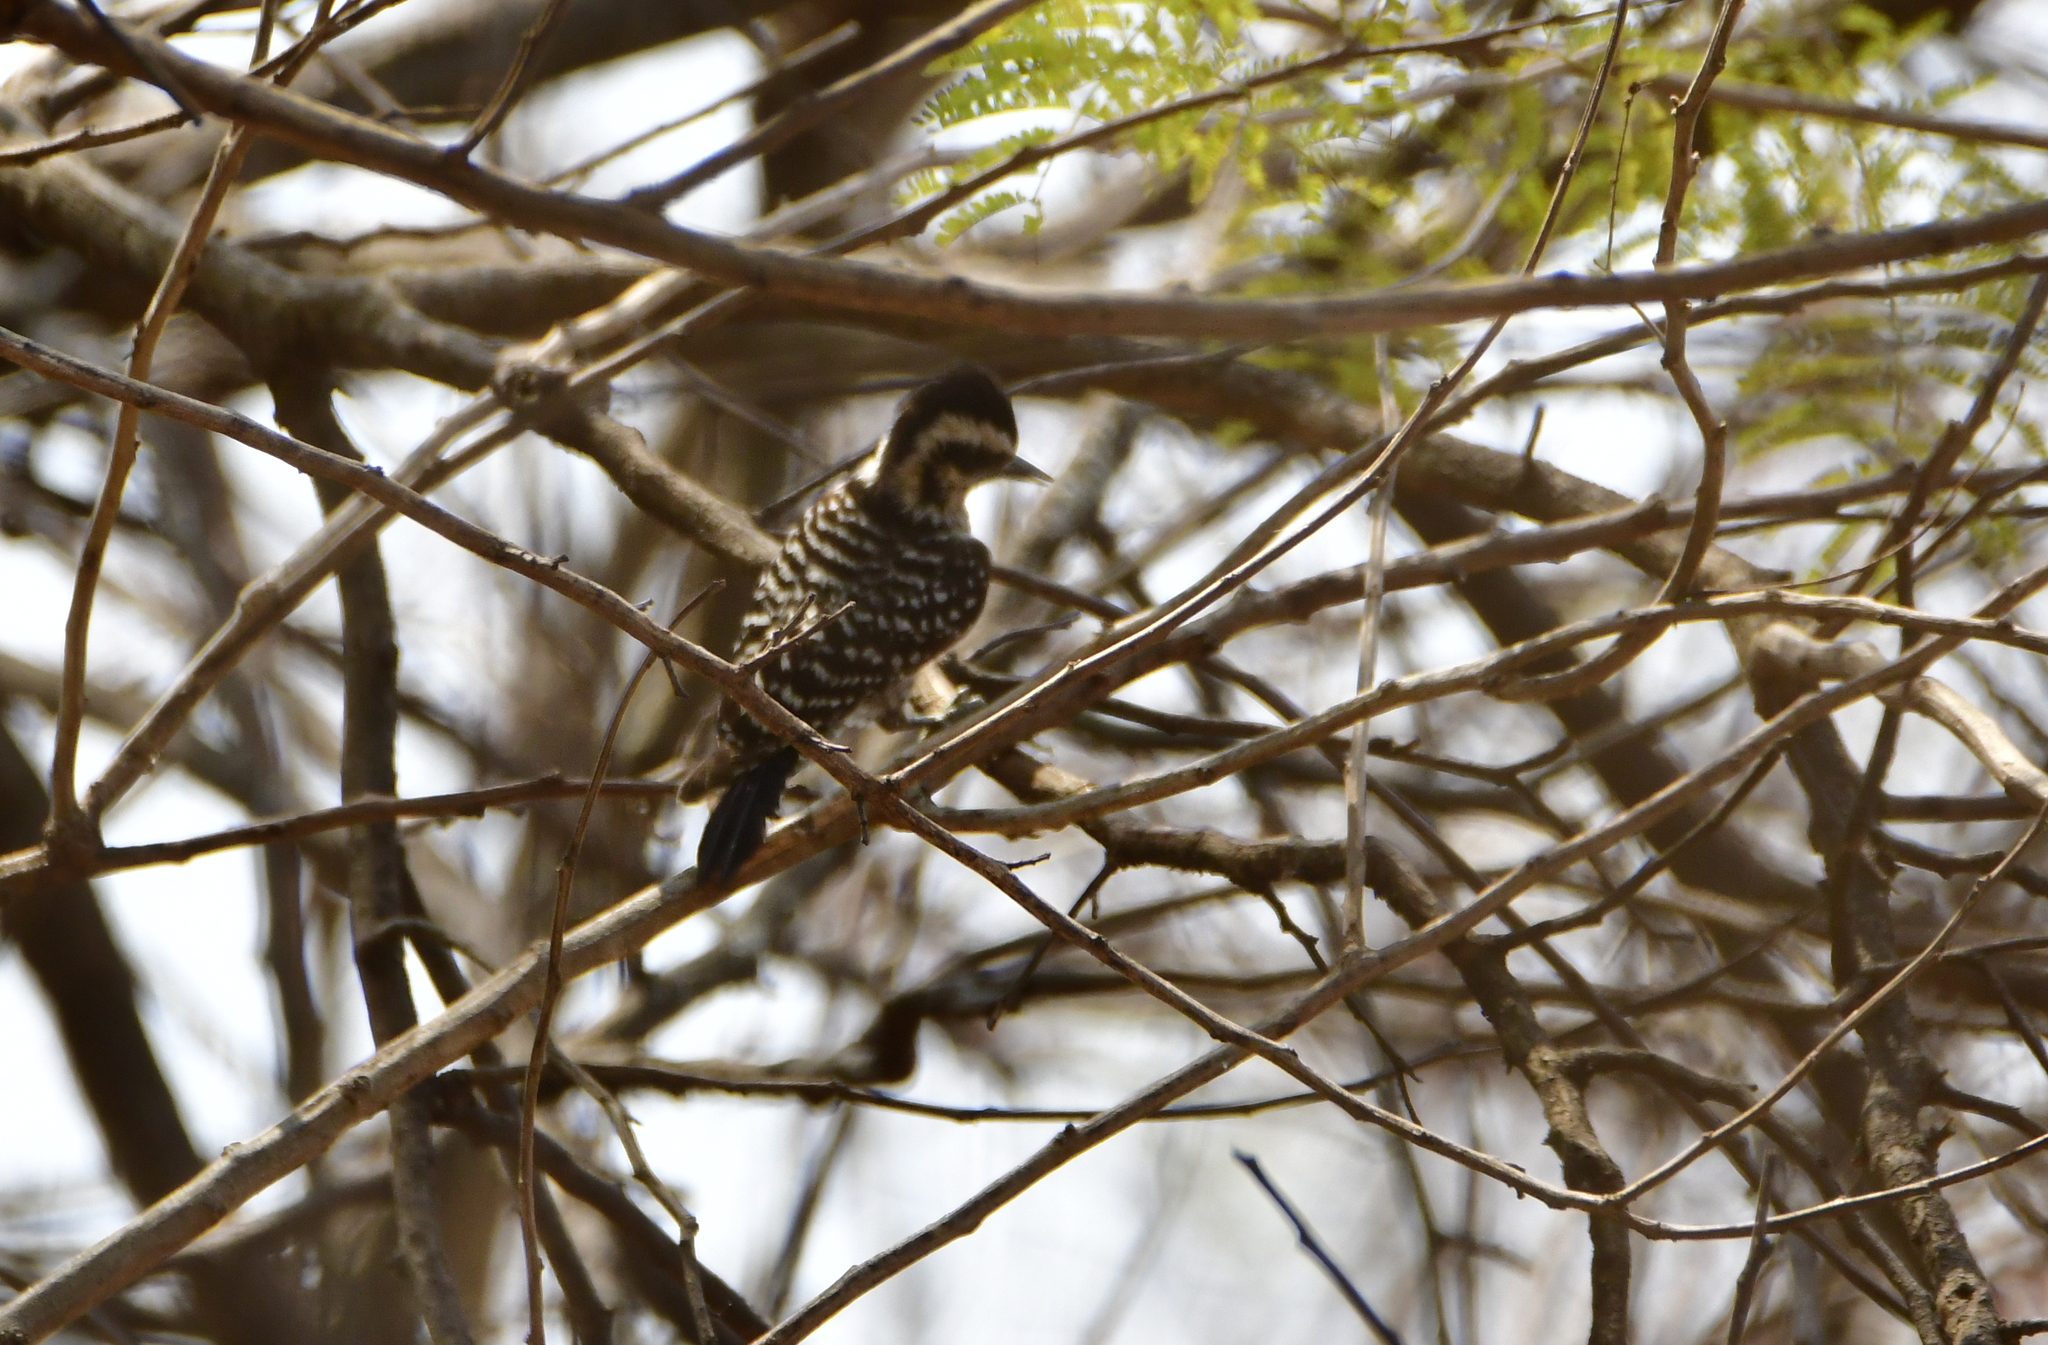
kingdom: Animalia
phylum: Chordata
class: Aves
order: Piciformes
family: Picidae
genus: Dryobates
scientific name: Dryobates scalaris
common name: Ladder-backed woodpecker
